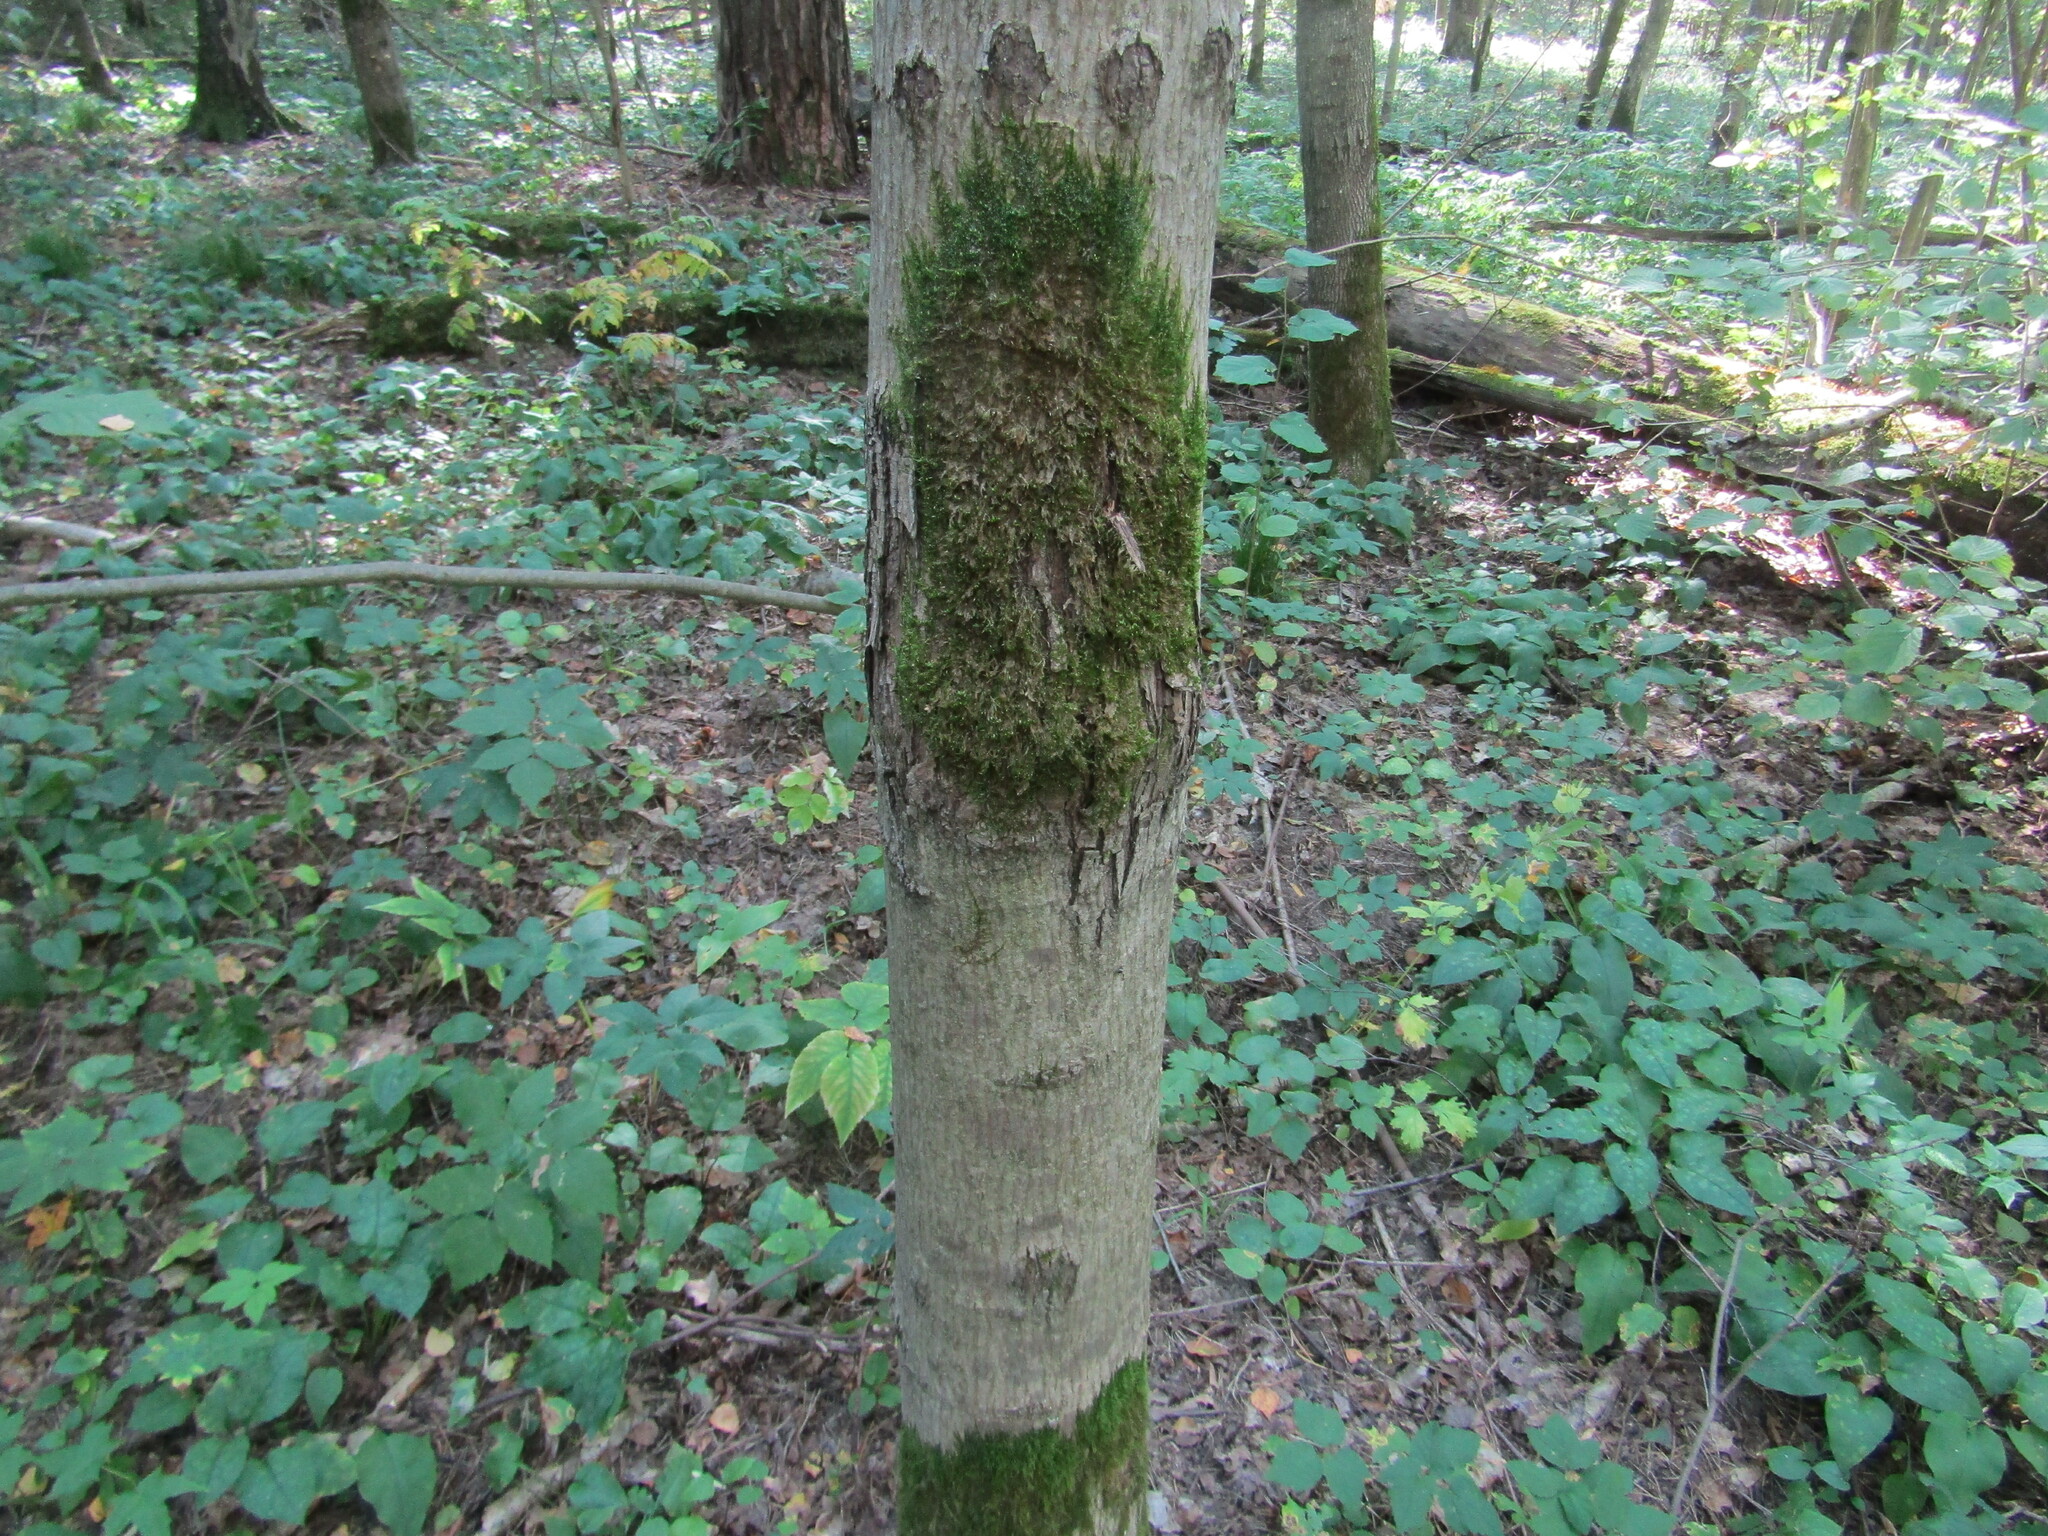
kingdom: Plantae
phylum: Tracheophyta
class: Magnoliopsida
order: Sapindales
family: Sapindaceae
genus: Acer
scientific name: Acer platanoides
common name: Norway maple
